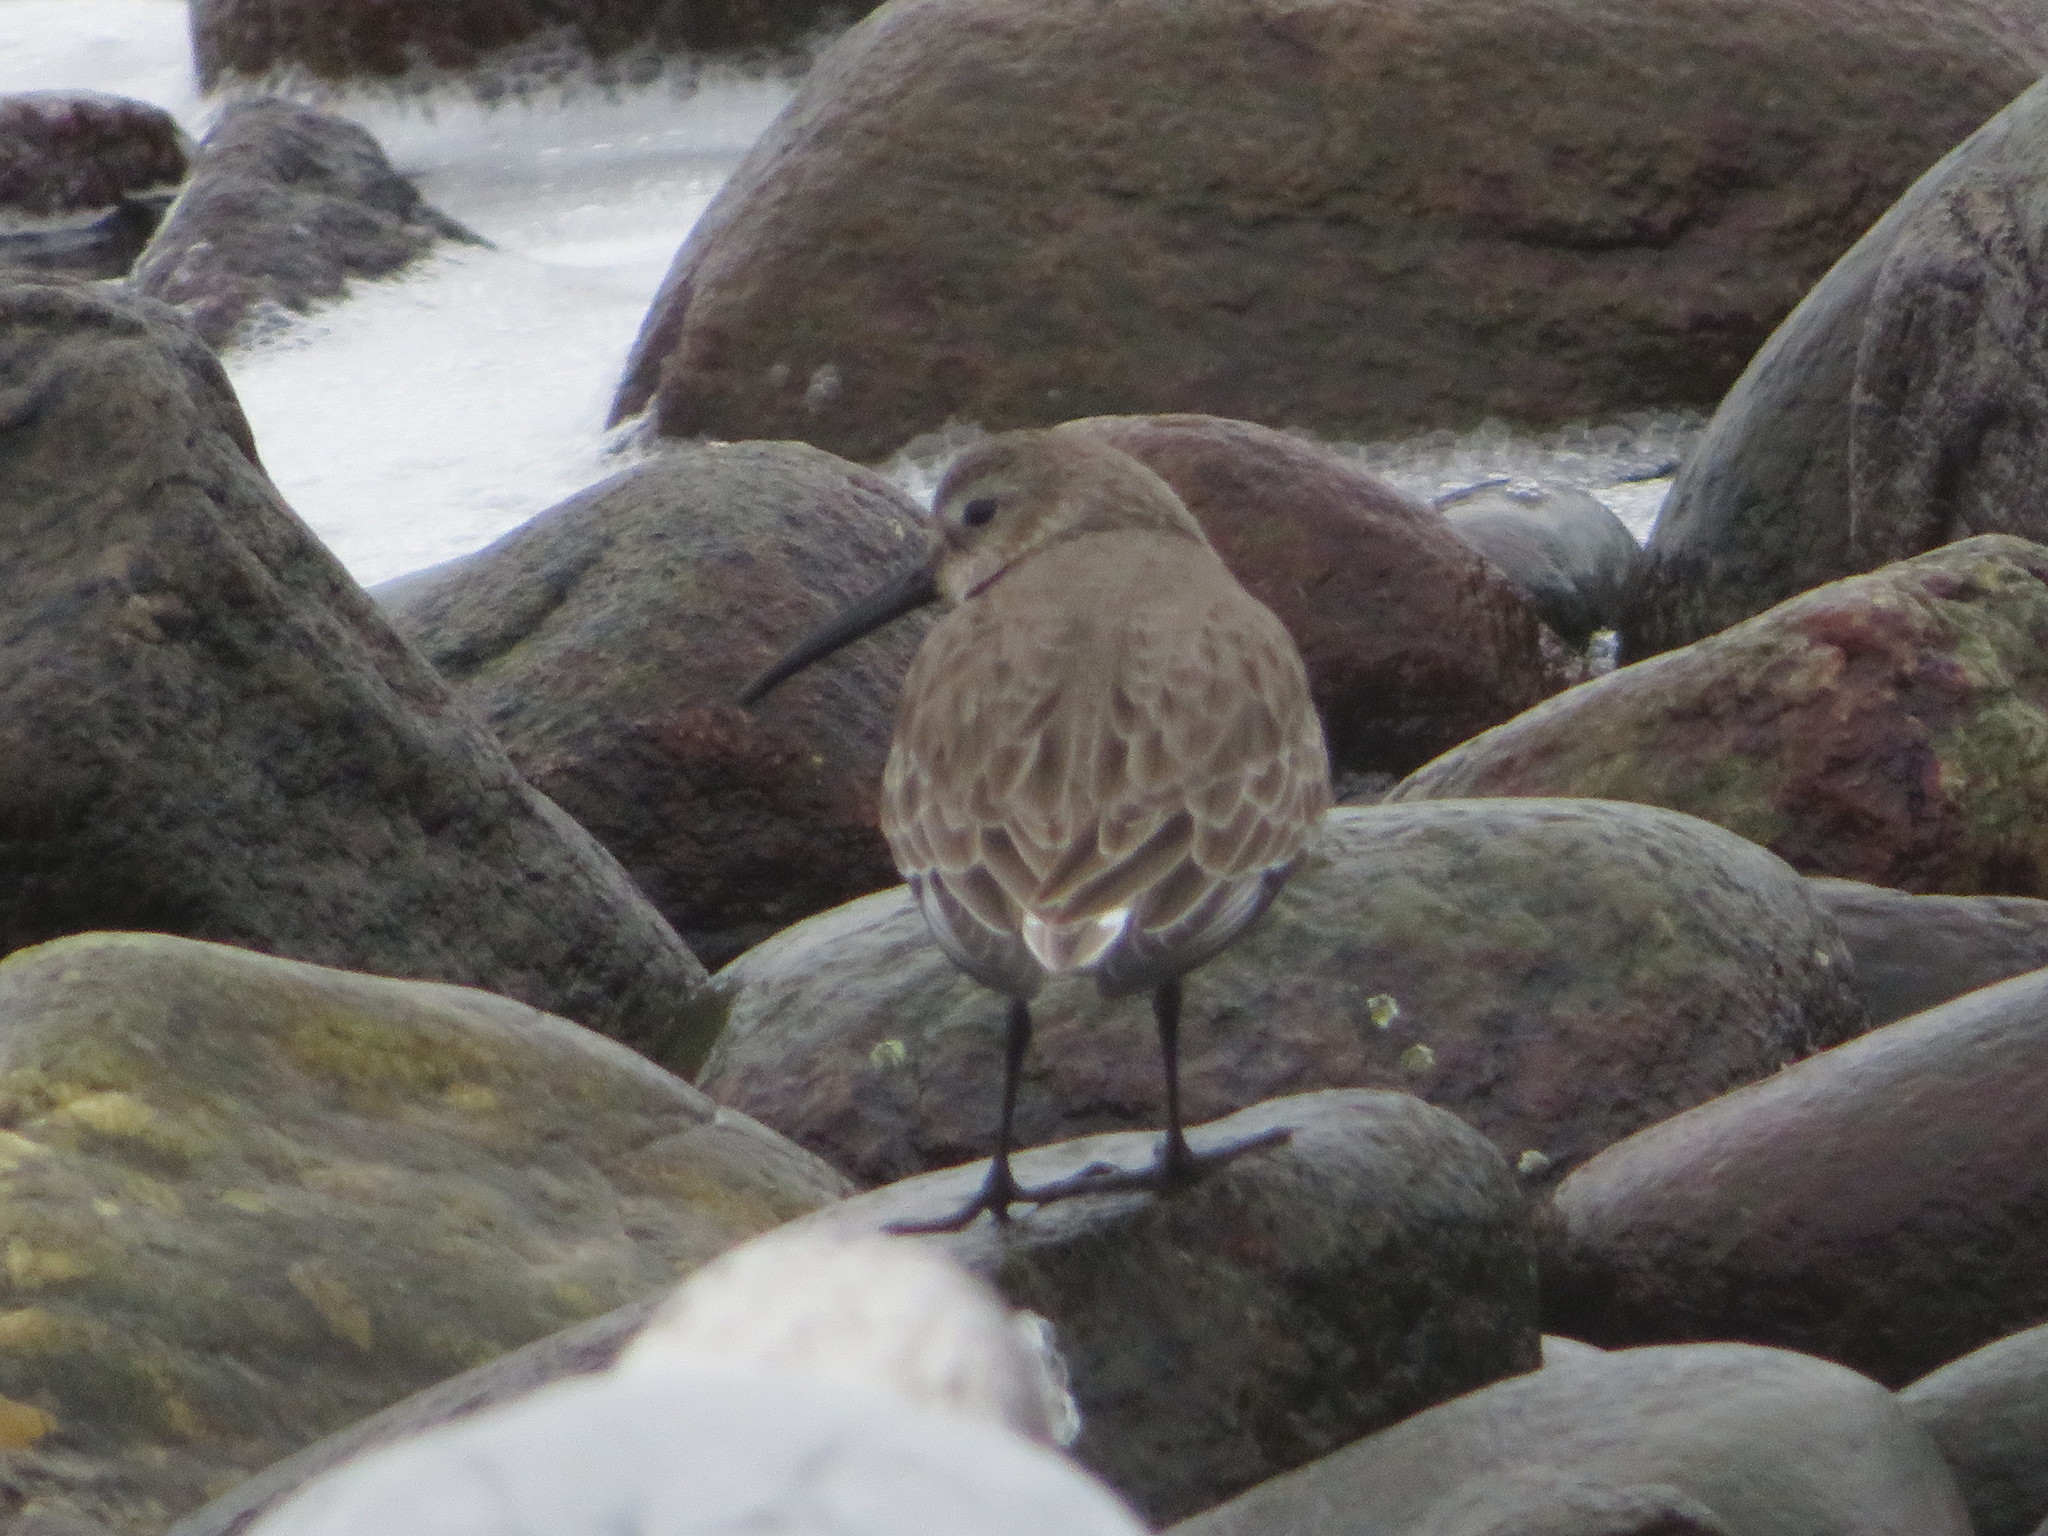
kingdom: Animalia
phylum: Chordata
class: Aves
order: Charadriiformes
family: Scolopacidae
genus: Calidris
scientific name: Calidris alpina
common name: Dunlin
